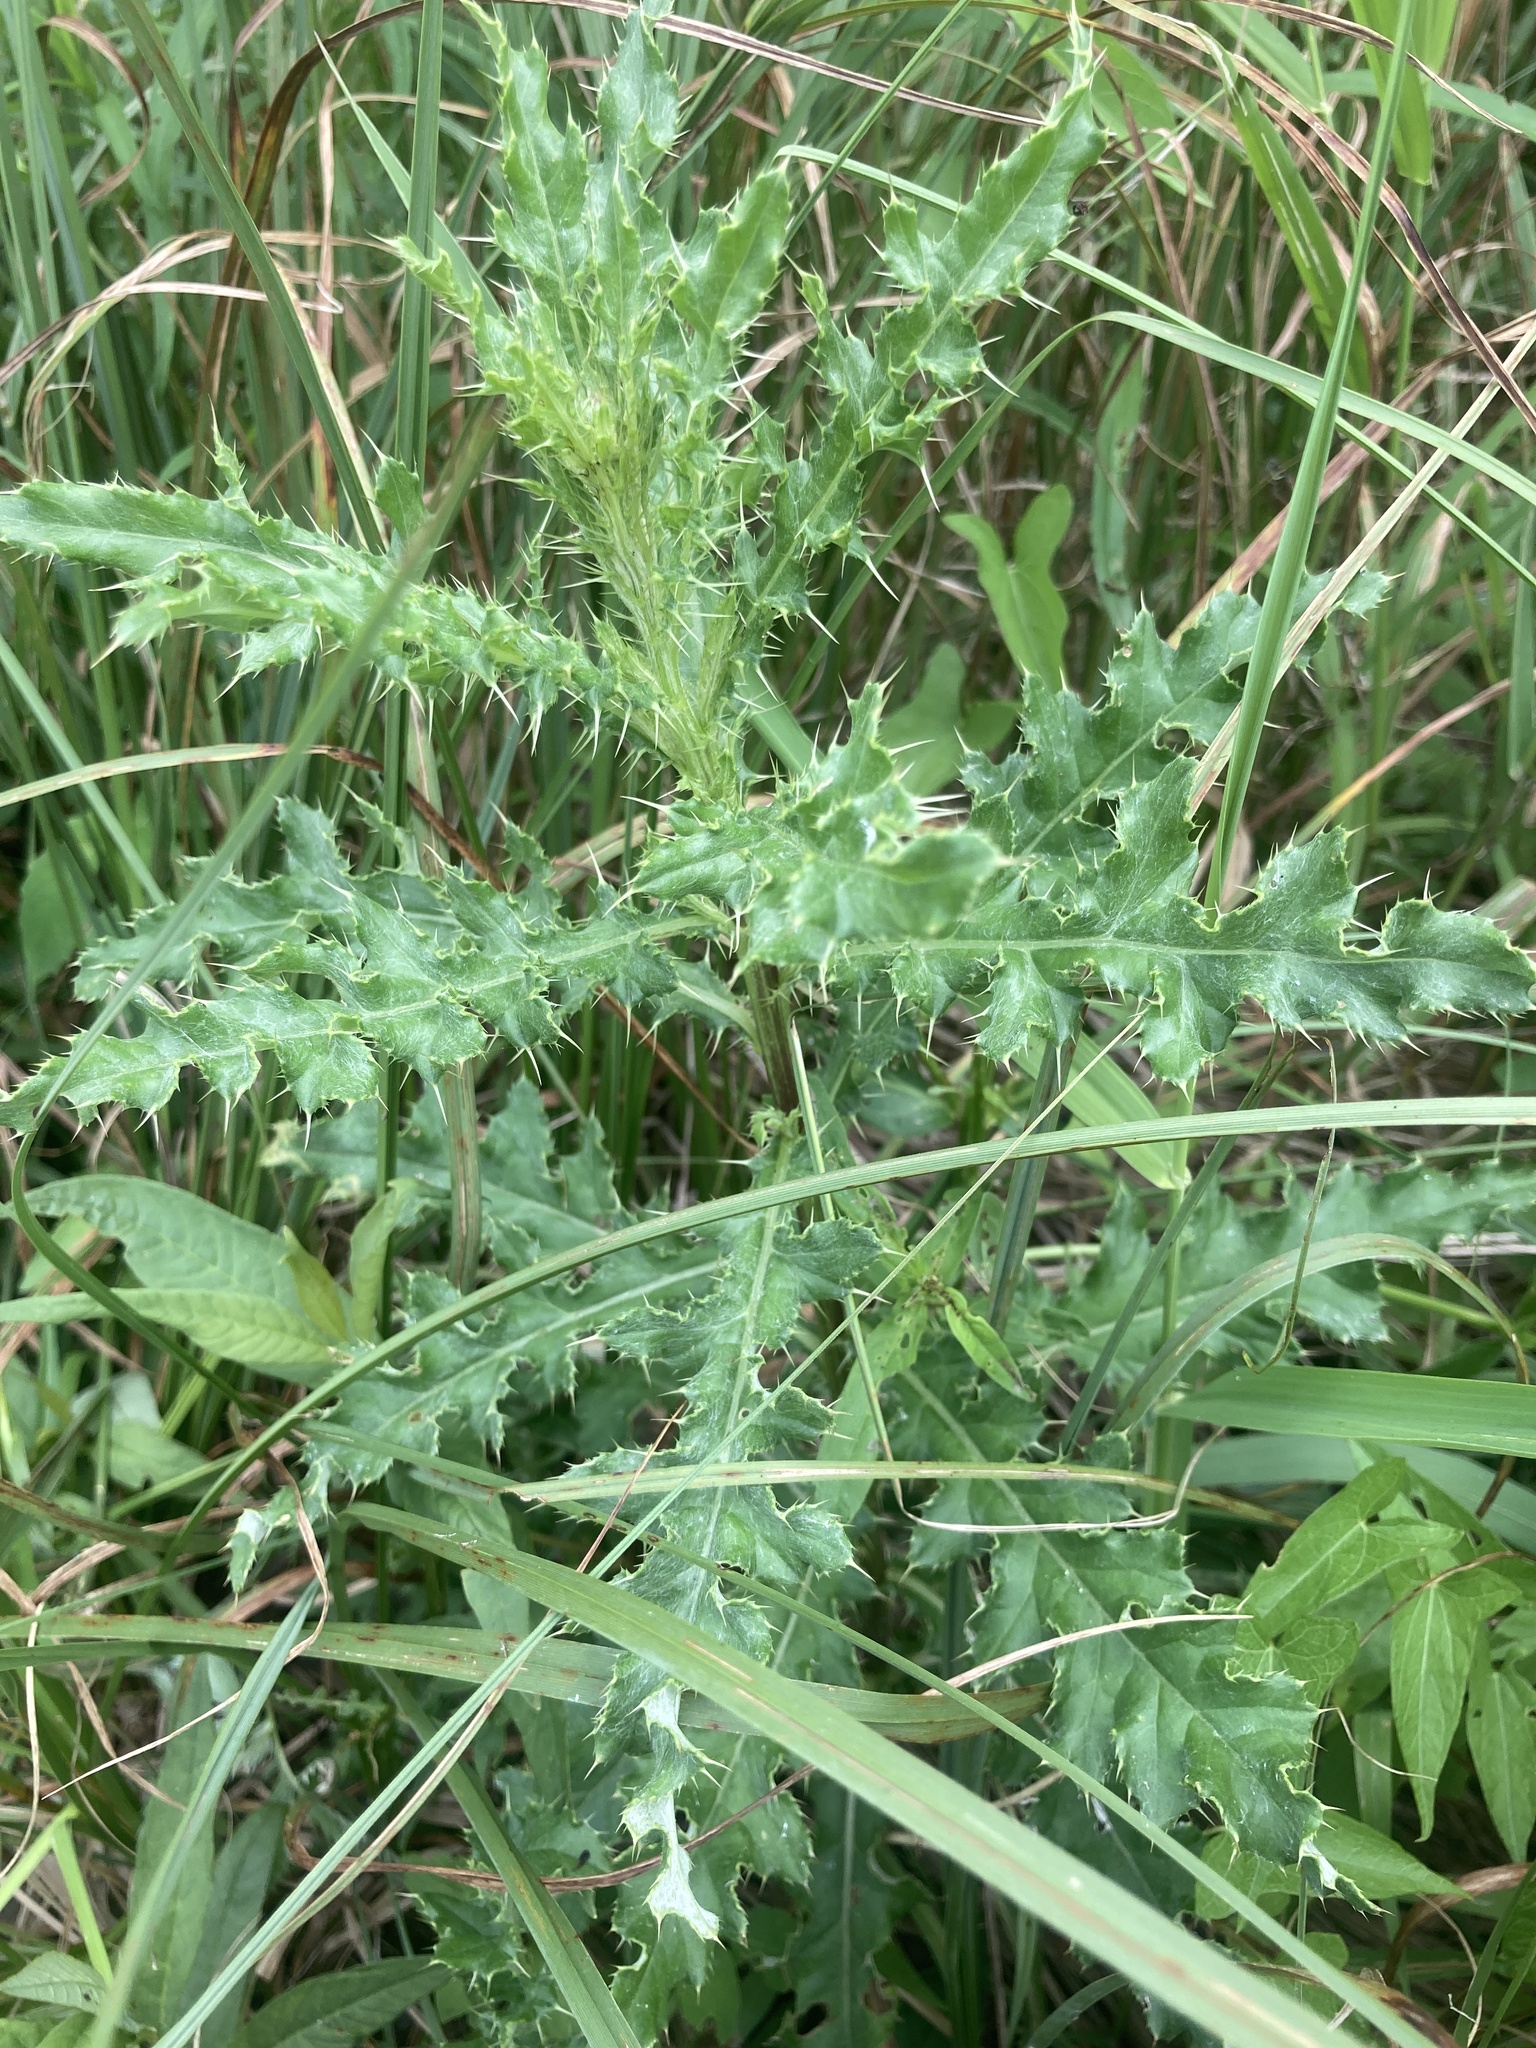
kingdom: Plantae
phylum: Tracheophyta
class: Magnoliopsida
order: Asterales
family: Asteraceae
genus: Cirsium
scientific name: Cirsium arvense
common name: Creeping thistle
